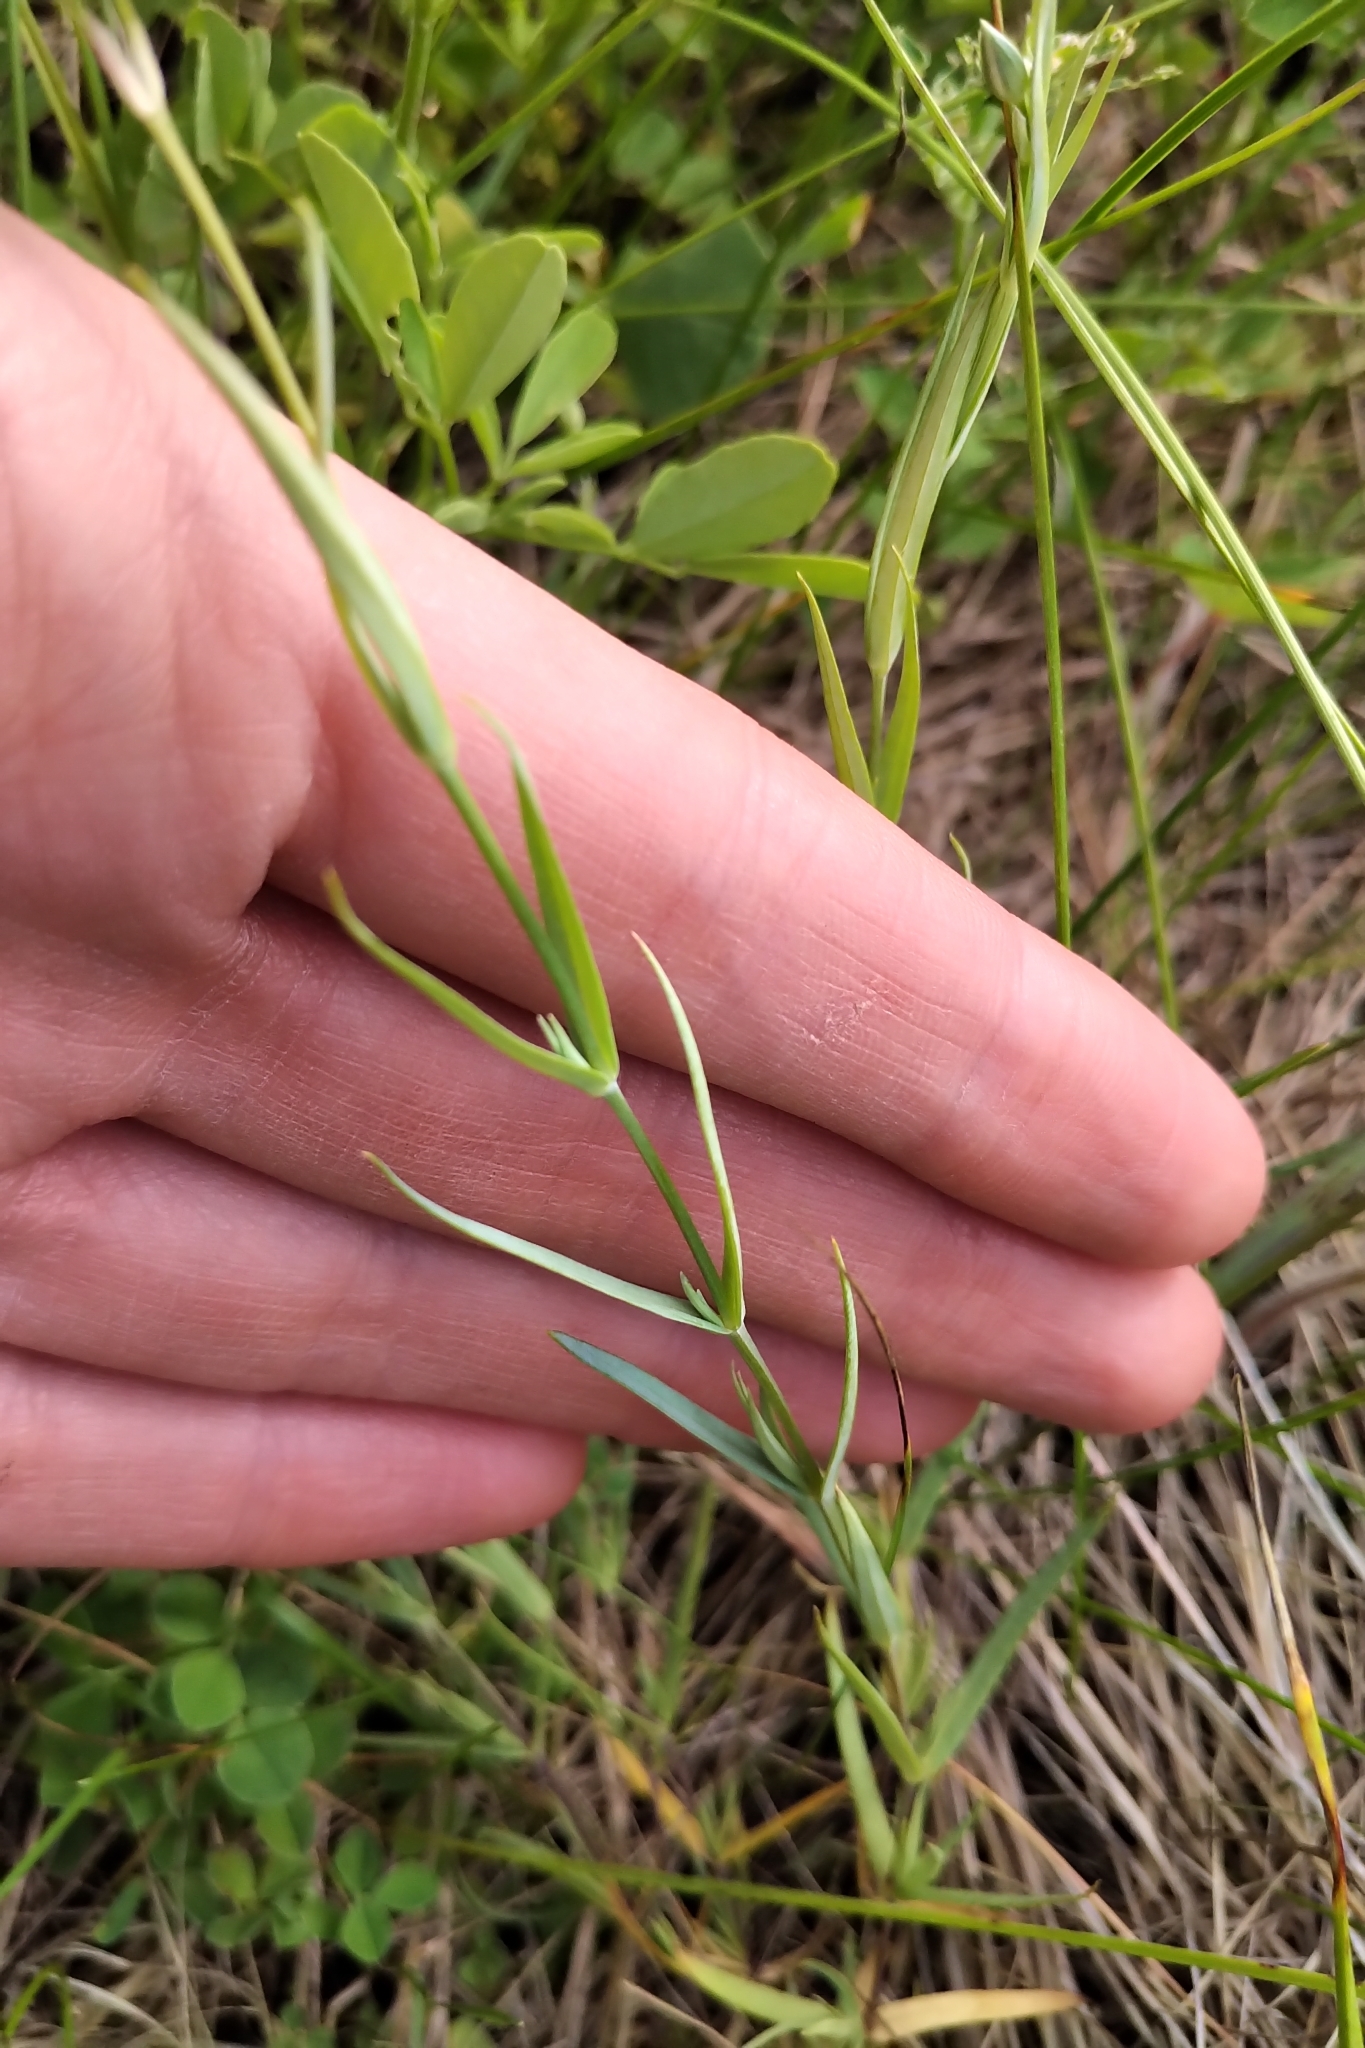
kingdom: Plantae
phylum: Tracheophyta
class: Magnoliopsida
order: Caryophyllales
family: Caryophyllaceae
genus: Stellaria
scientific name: Stellaria longipes
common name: Goldie's starwort
